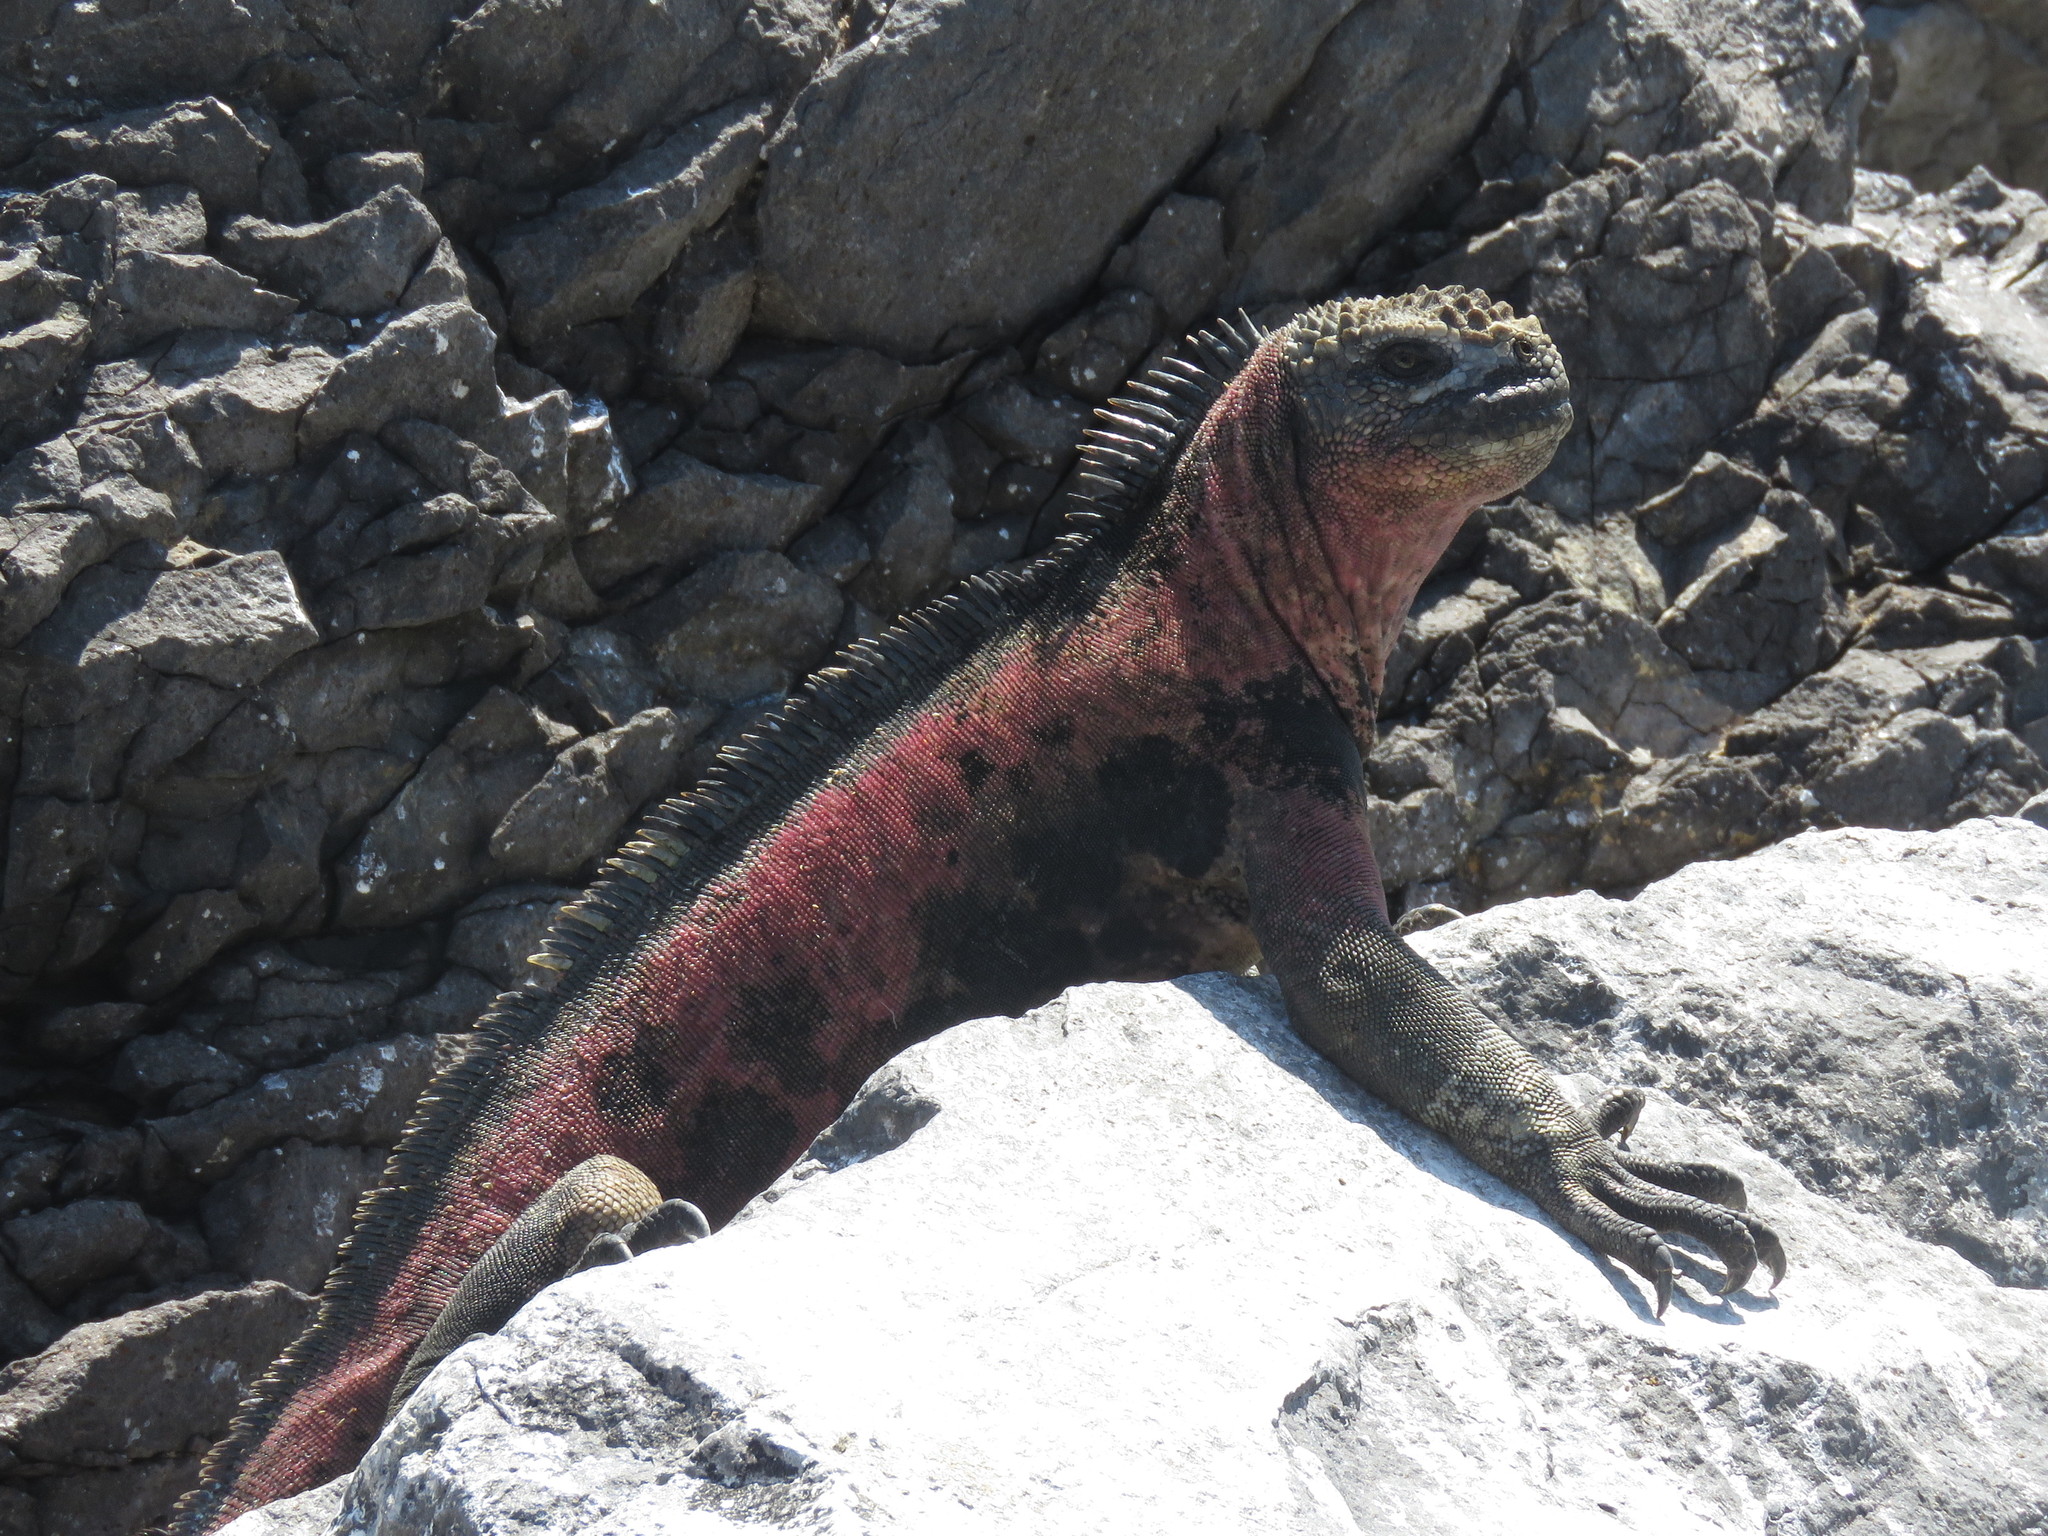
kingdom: Animalia
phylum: Chordata
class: Squamata
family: Iguanidae
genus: Amblyrhynchus
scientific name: Amblyrhynchus cristatus
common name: Marine iguana
